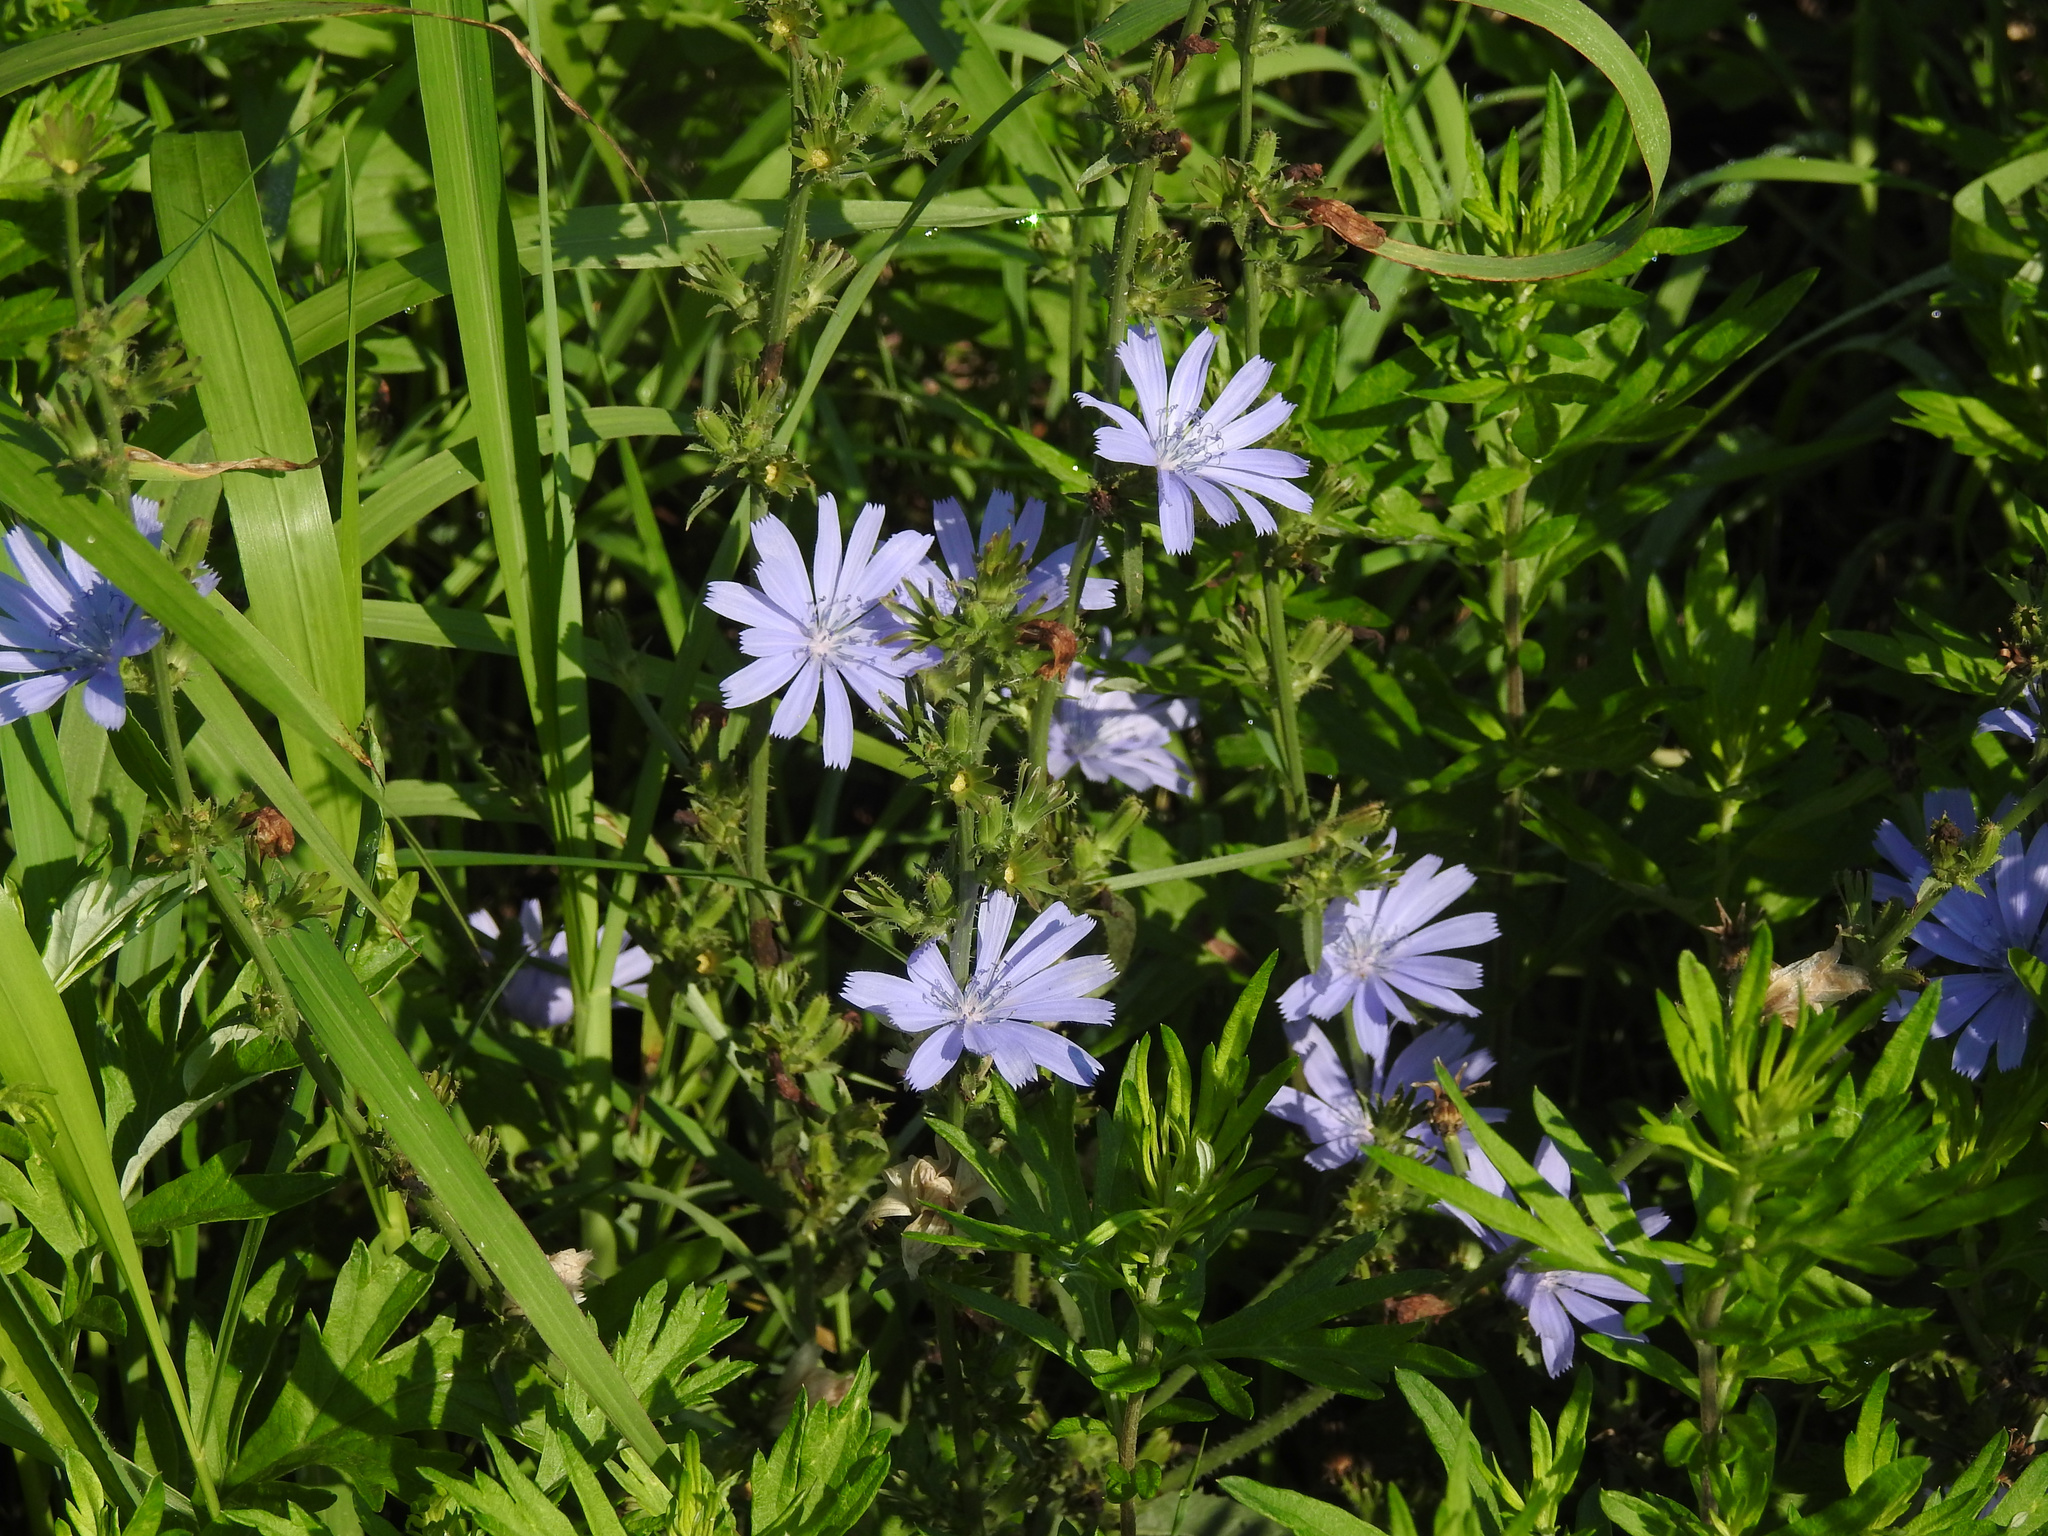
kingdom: Plantae
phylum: Tracheophyta
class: Magnoliopsida
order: Asterales
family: Asteraceae
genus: Cichorium
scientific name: Cichorium intybus
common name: Chicory
